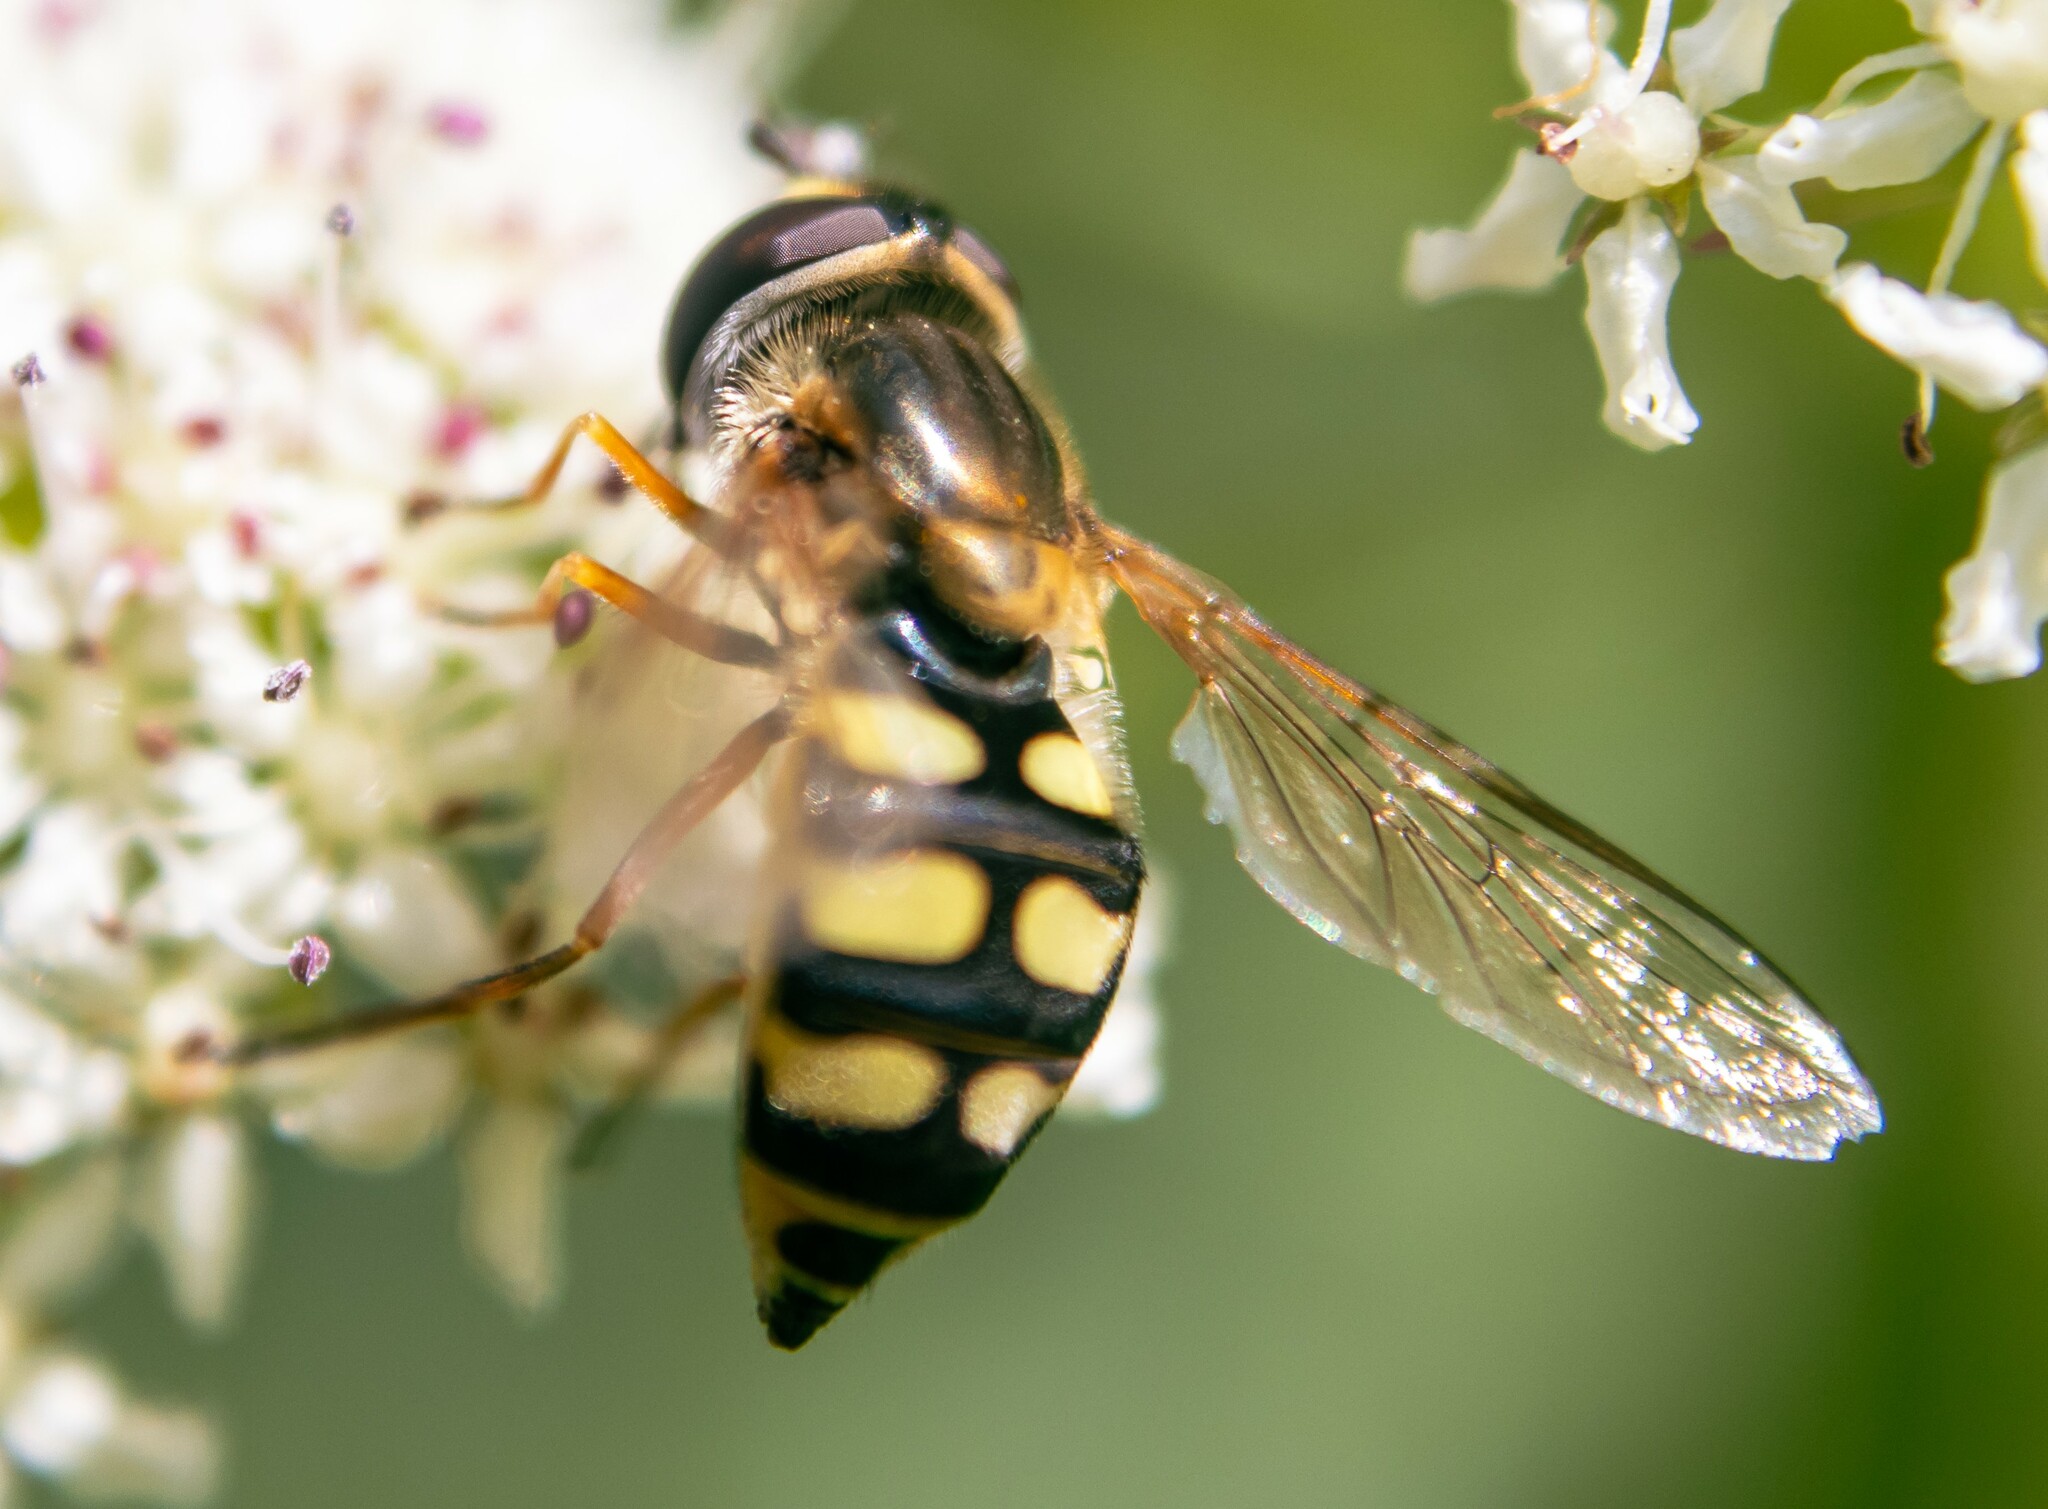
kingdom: Animalia
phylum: Arthropoda
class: Insecta
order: Diptera
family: Syrphidae
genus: Eupeodes
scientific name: Eupeodes corollae
